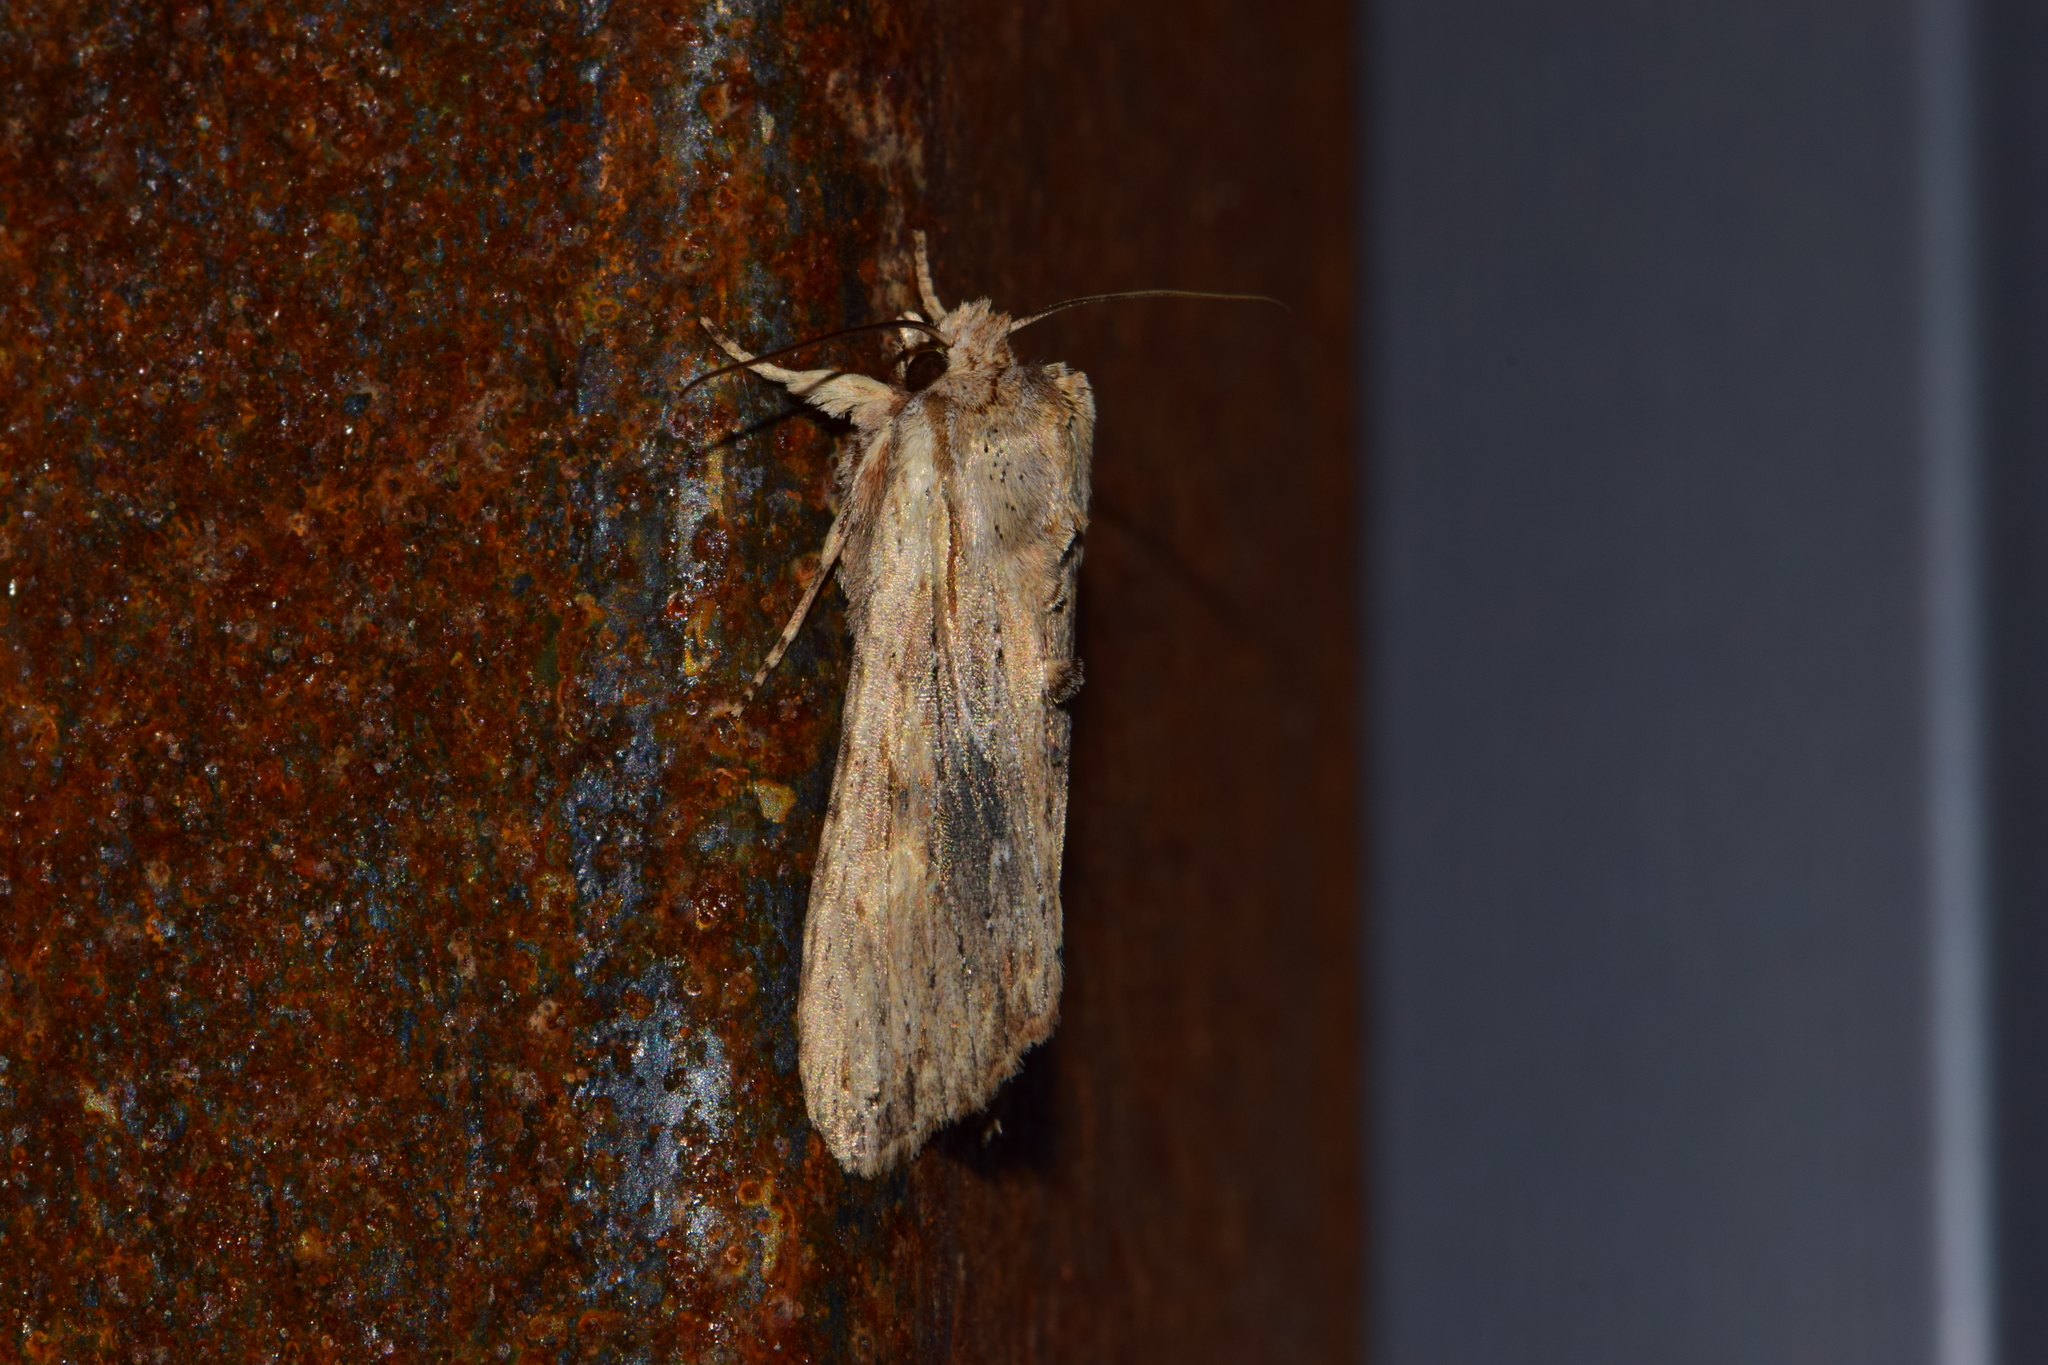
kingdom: Animalia
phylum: Arthropoda
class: Insecta
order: Lepidoptera
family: Noctuidae
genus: Lithophane
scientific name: Lithophane socia
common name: Pale pinion
